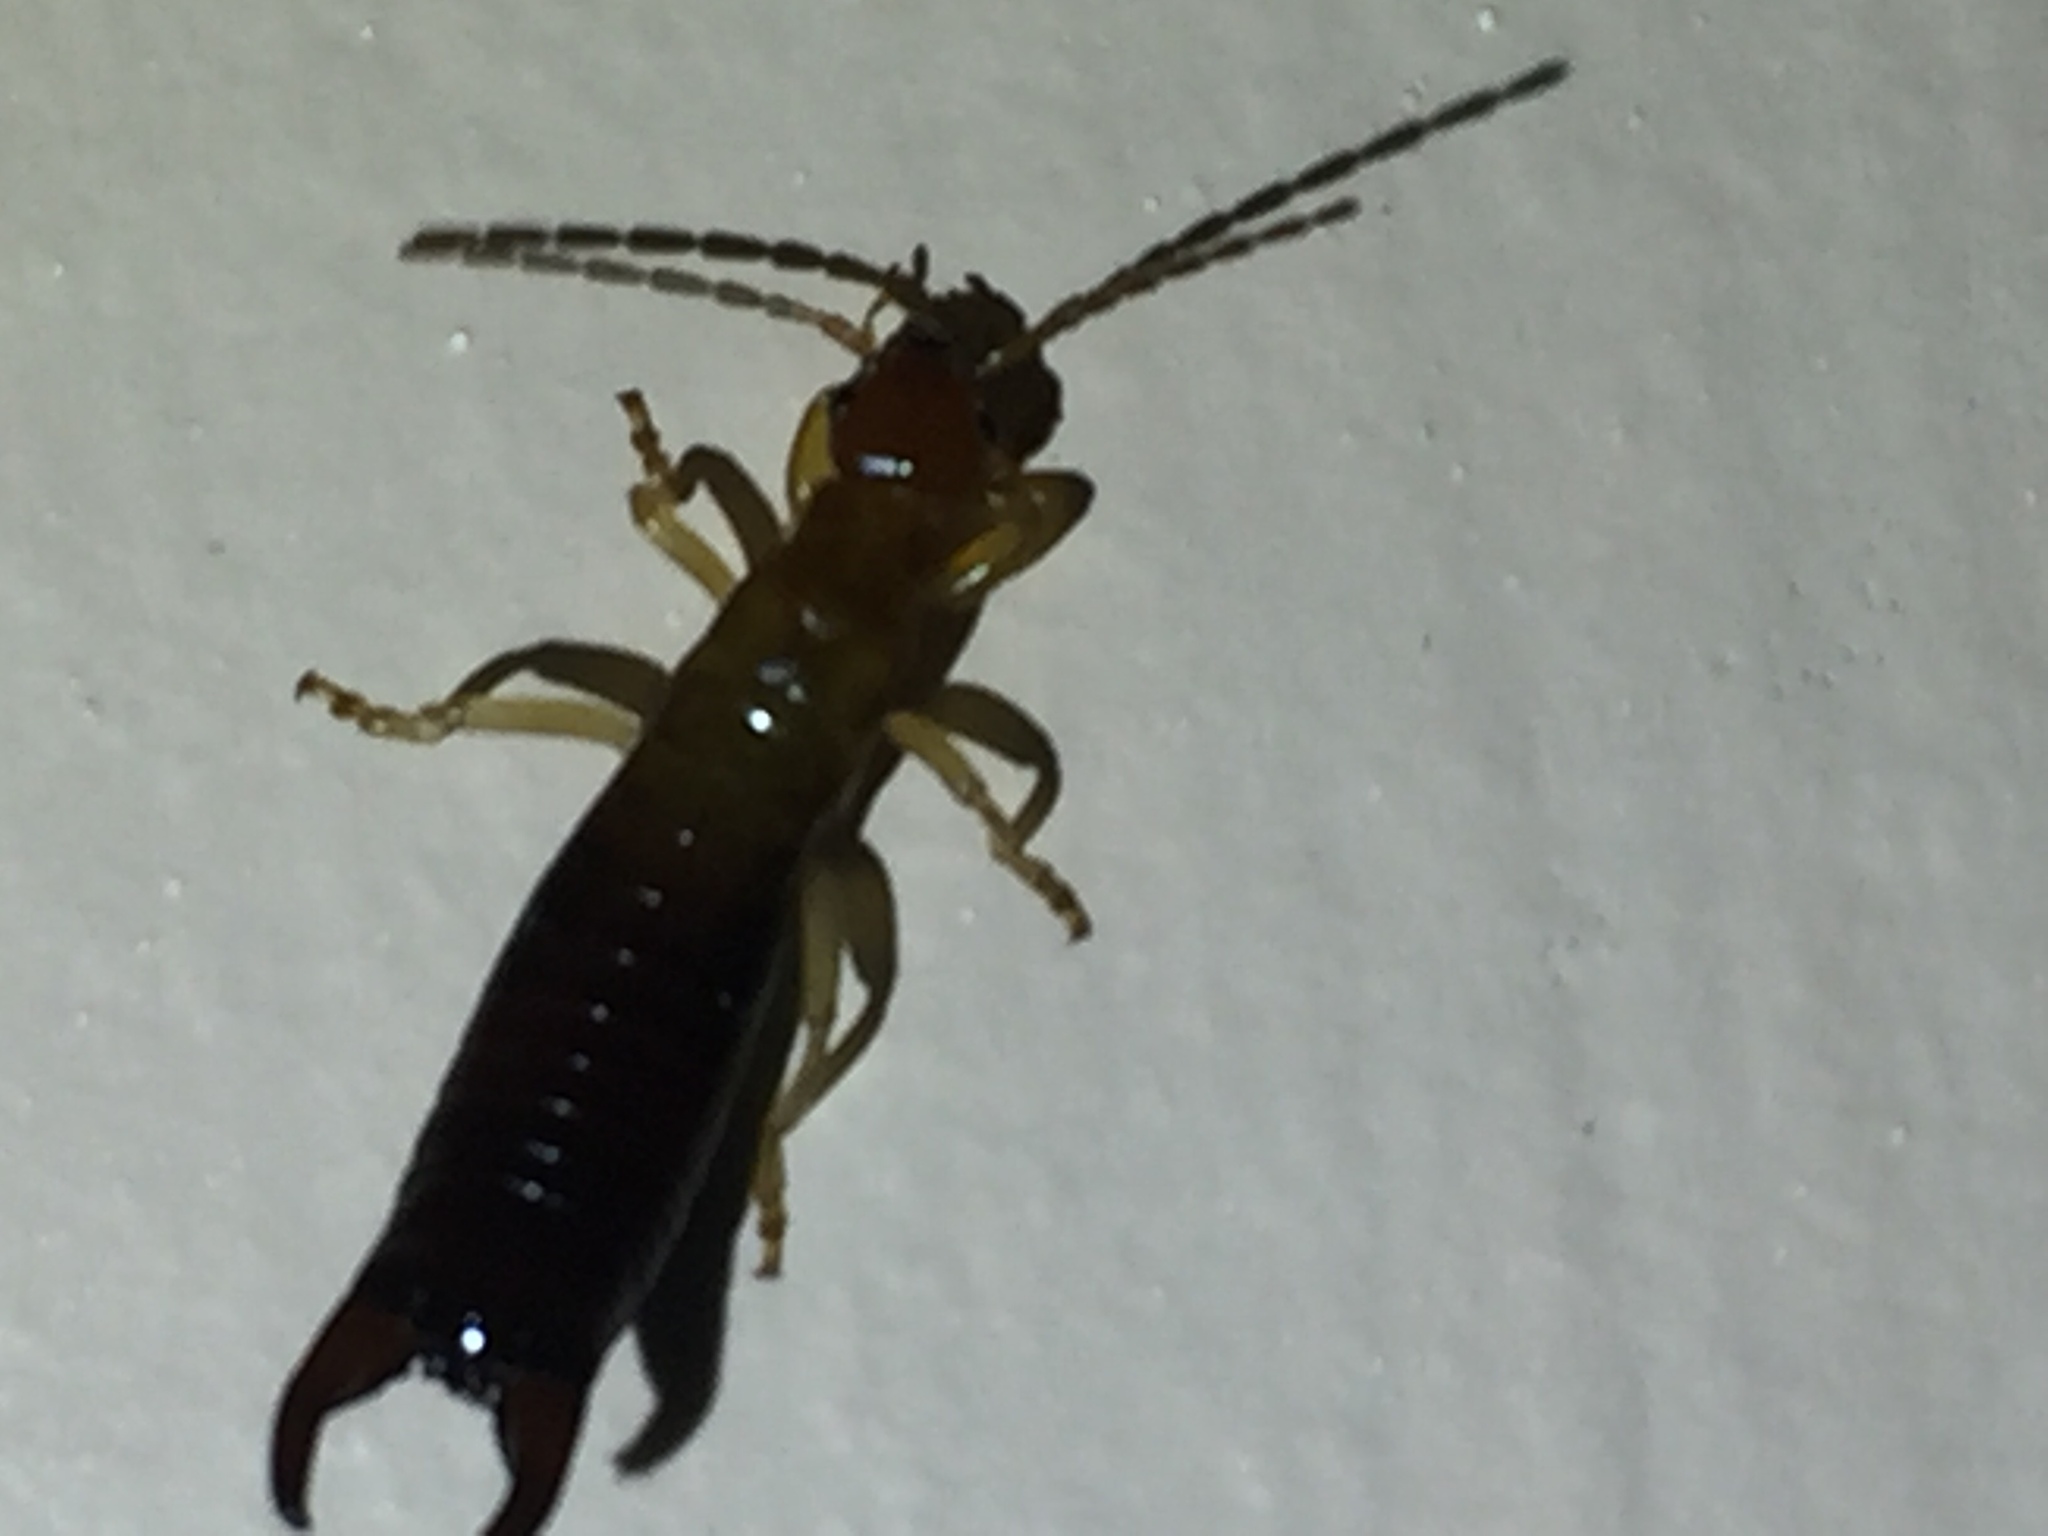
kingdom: Animalia
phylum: Arthropoda
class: Insecta
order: Dermaptera
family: Forficulidae
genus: Proforficula
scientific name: Proforficula peringueyi
